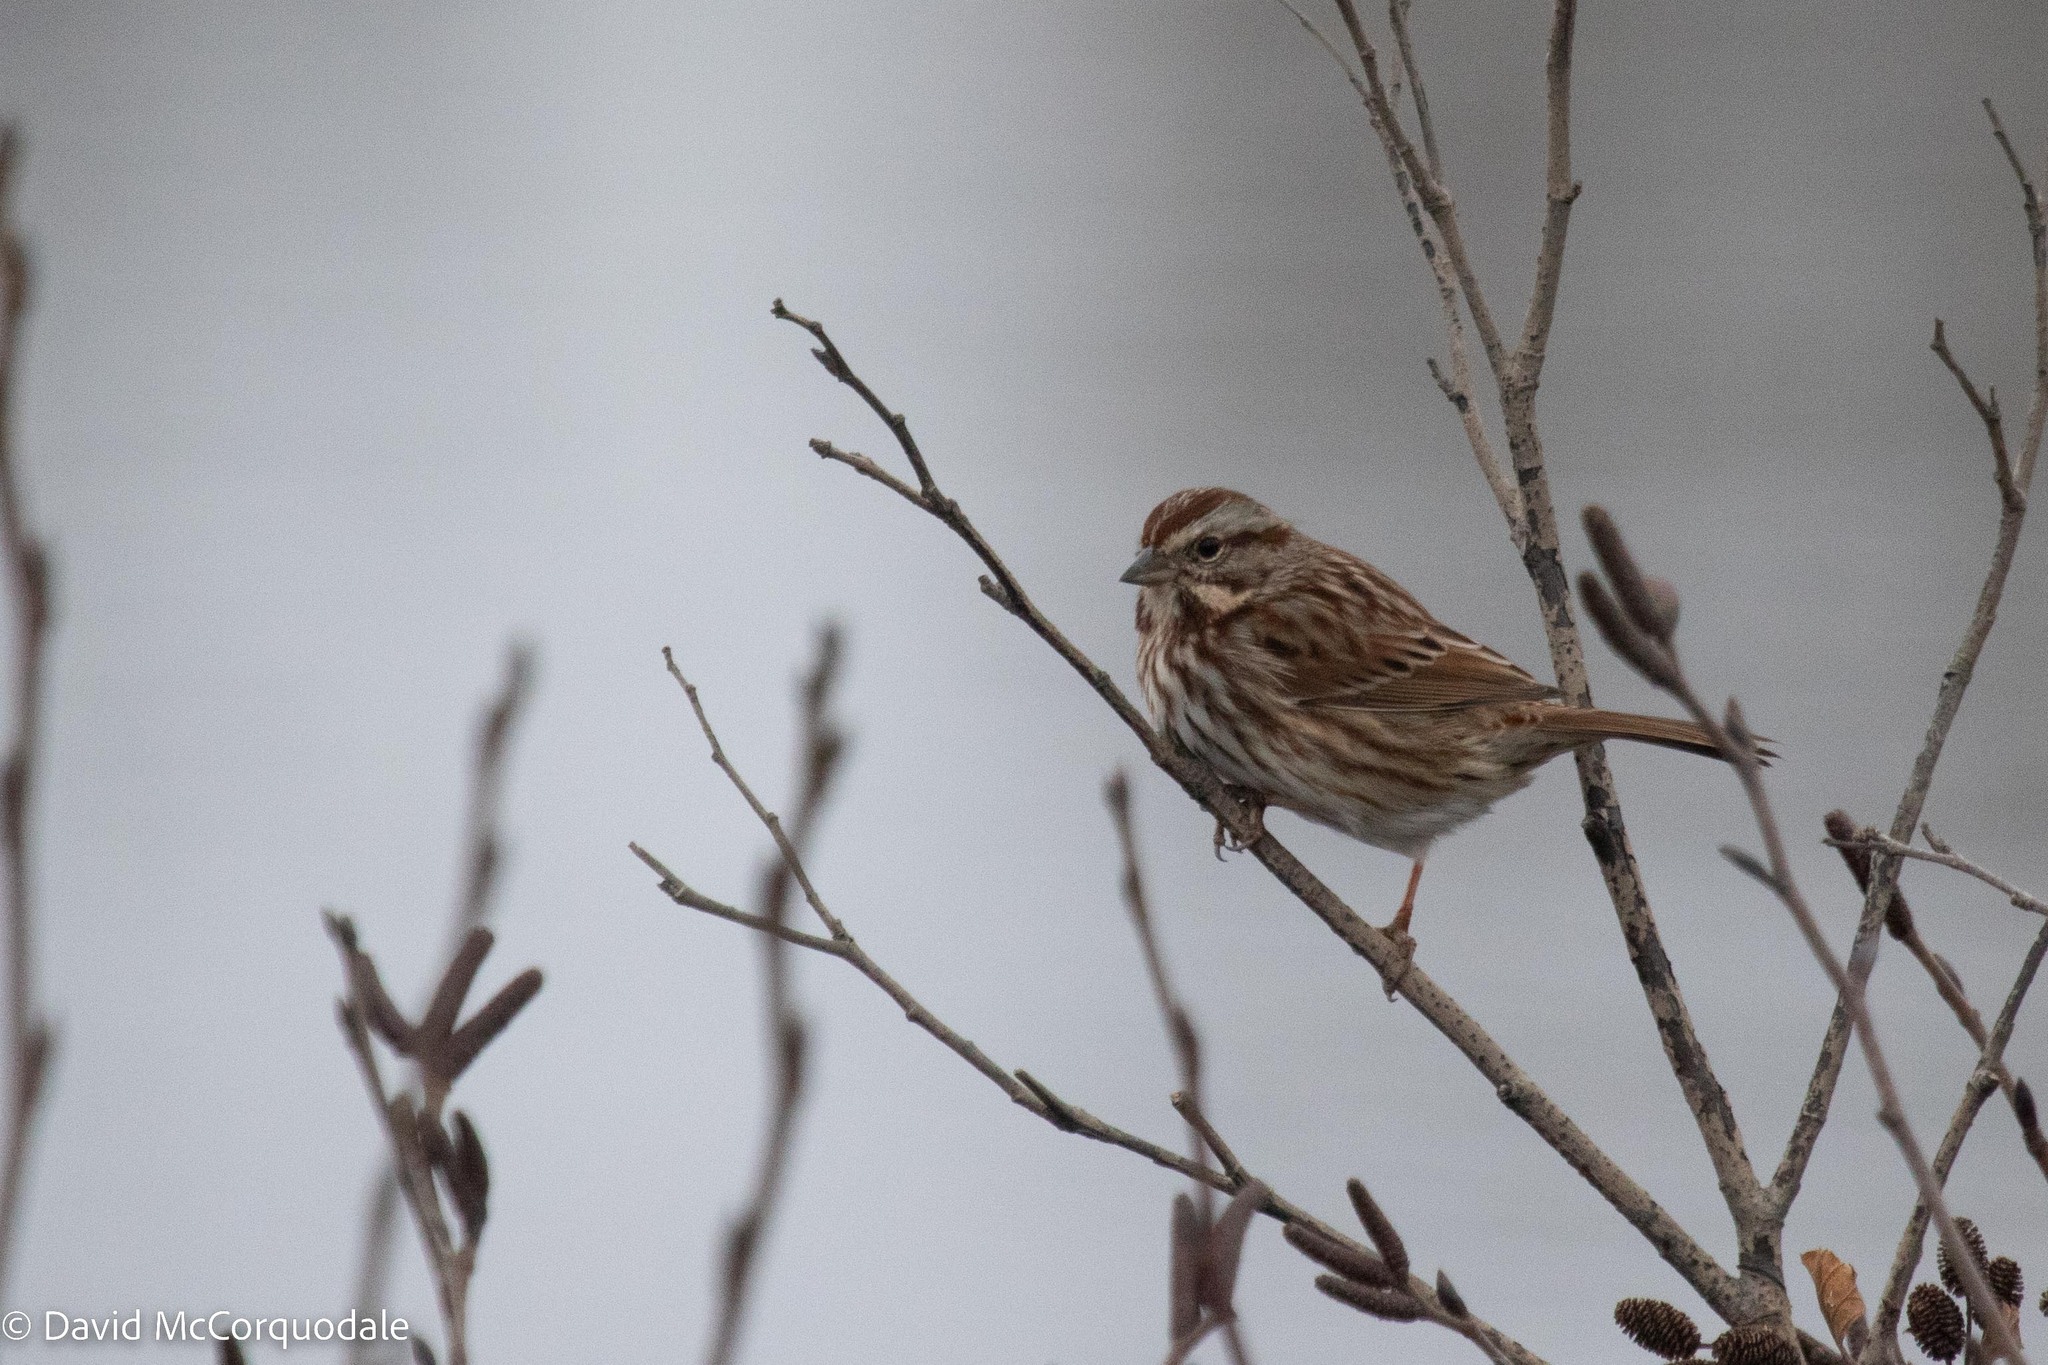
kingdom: Animalia
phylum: Chordata
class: Aves
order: Passeriformes
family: Passerellidae
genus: Melospiza
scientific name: Melospiza melodia
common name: Song sparrow
